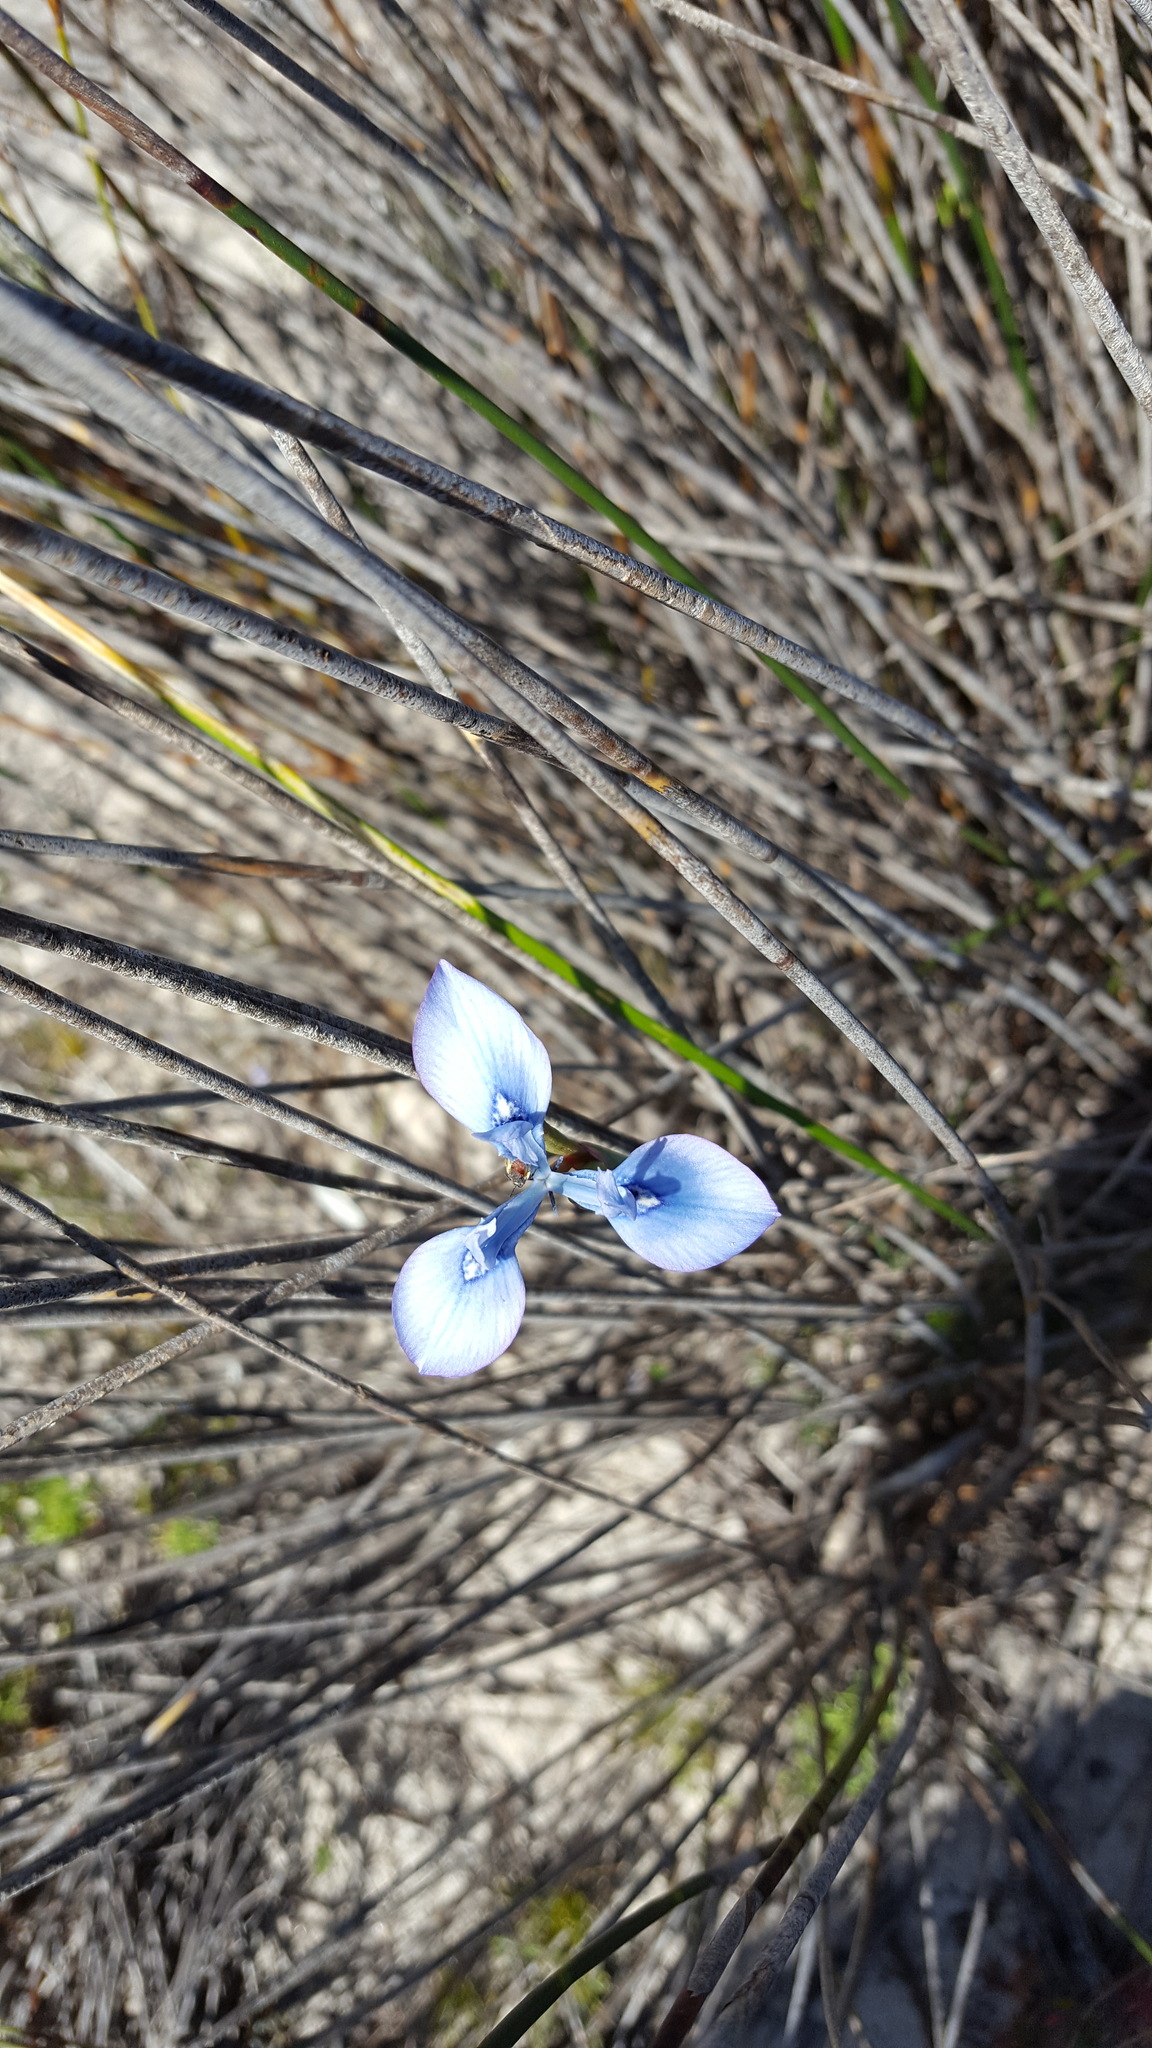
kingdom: Plantae
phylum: Tracheophyta
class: Liliopsida
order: Asparagales
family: Iridaceae
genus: Moraea
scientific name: Moraea tripetala
